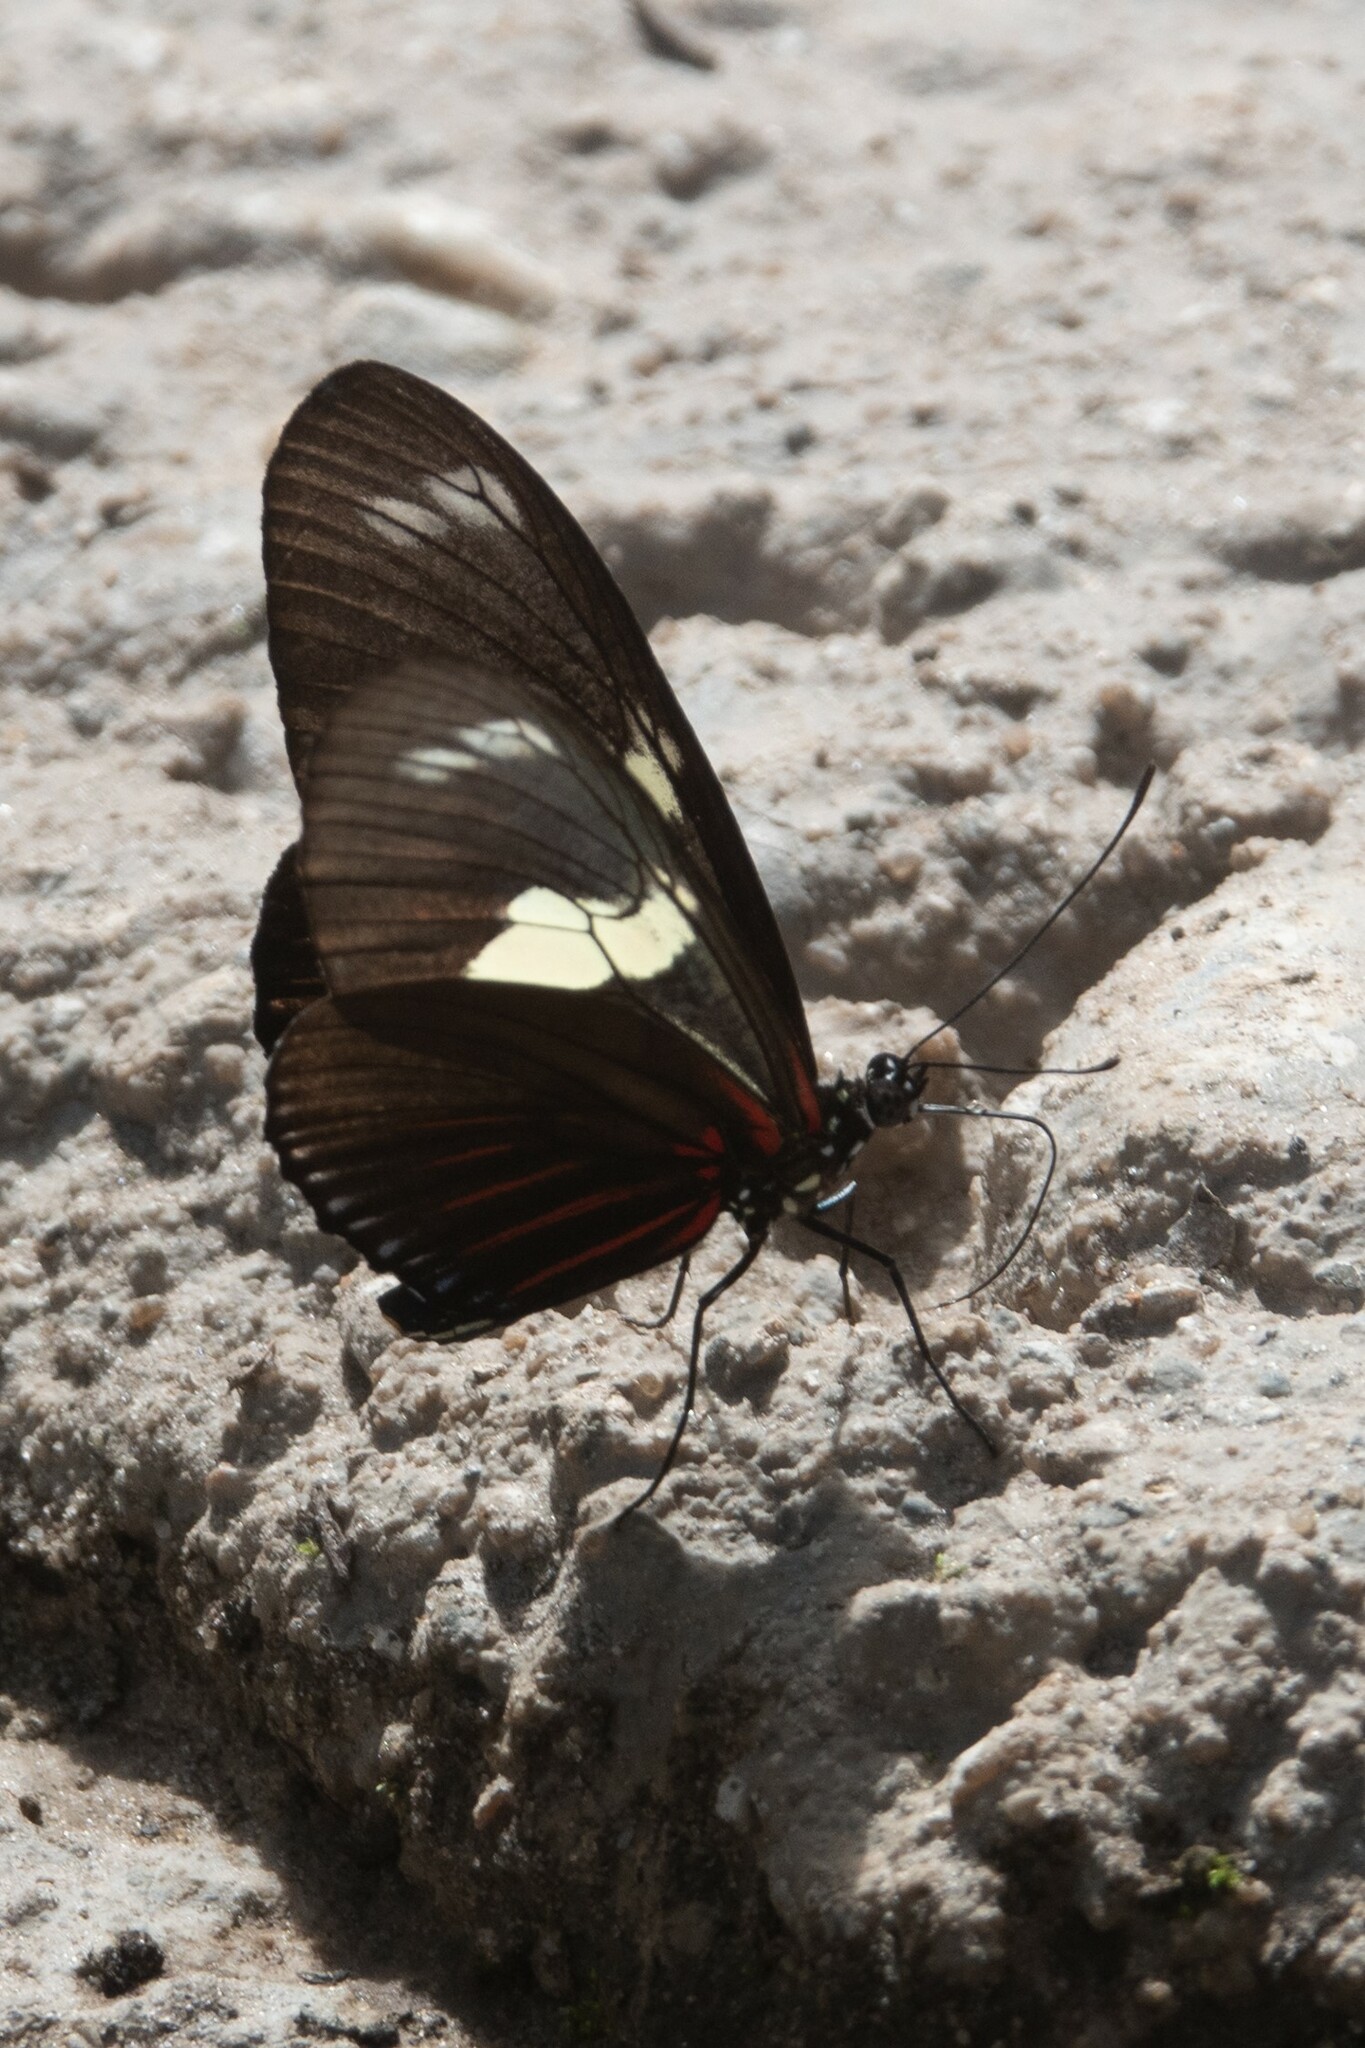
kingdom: Animalia
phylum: Arthropoda
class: Insecta
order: Lepidoptera
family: Nymphalidae
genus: Heliconius
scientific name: Heliconius doris
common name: Doris longwing
